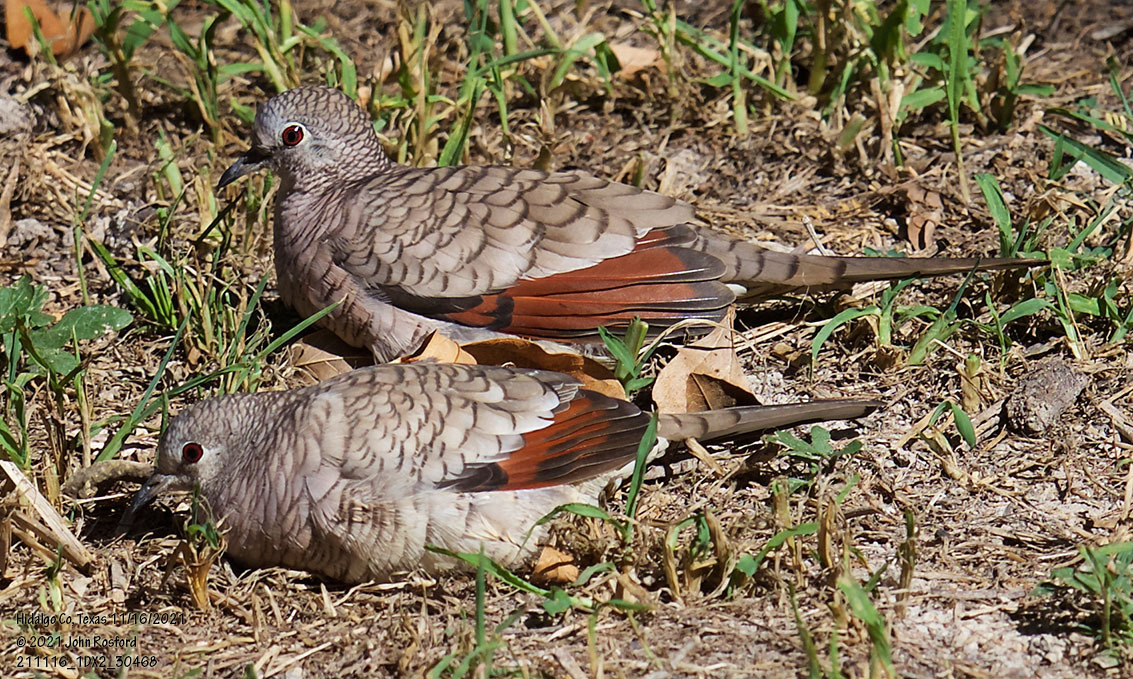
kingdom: Animalia
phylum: Chordata
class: Aves
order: Columbiformes
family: Columbidae
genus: Columbina
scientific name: Columbina inca
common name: Inca dove
